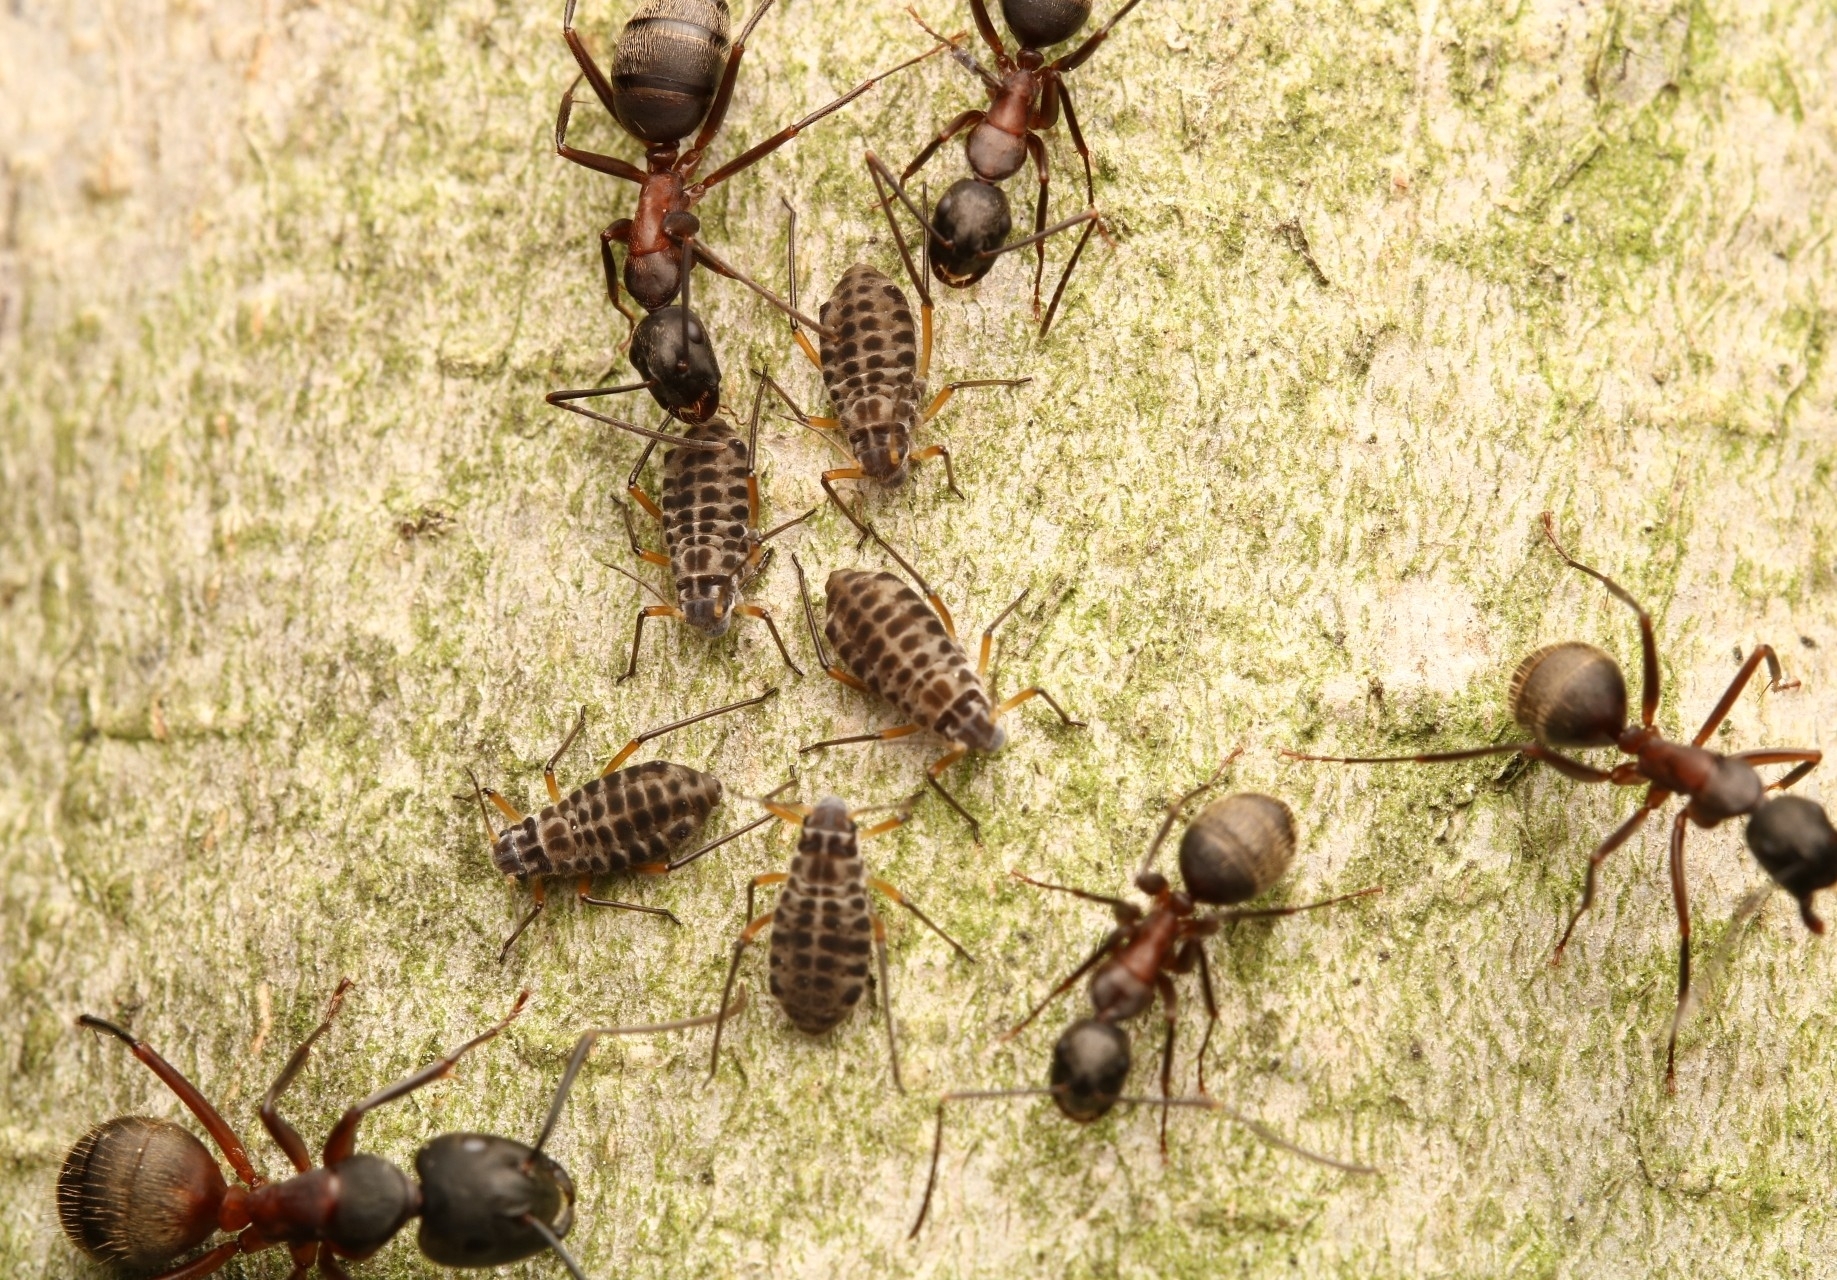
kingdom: Animalia
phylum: Arthropoda
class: Insecta
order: Hymenoptera
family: Formicidae
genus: Camponotus
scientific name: Camponotus chromaiodes
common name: Red carpenter ant
